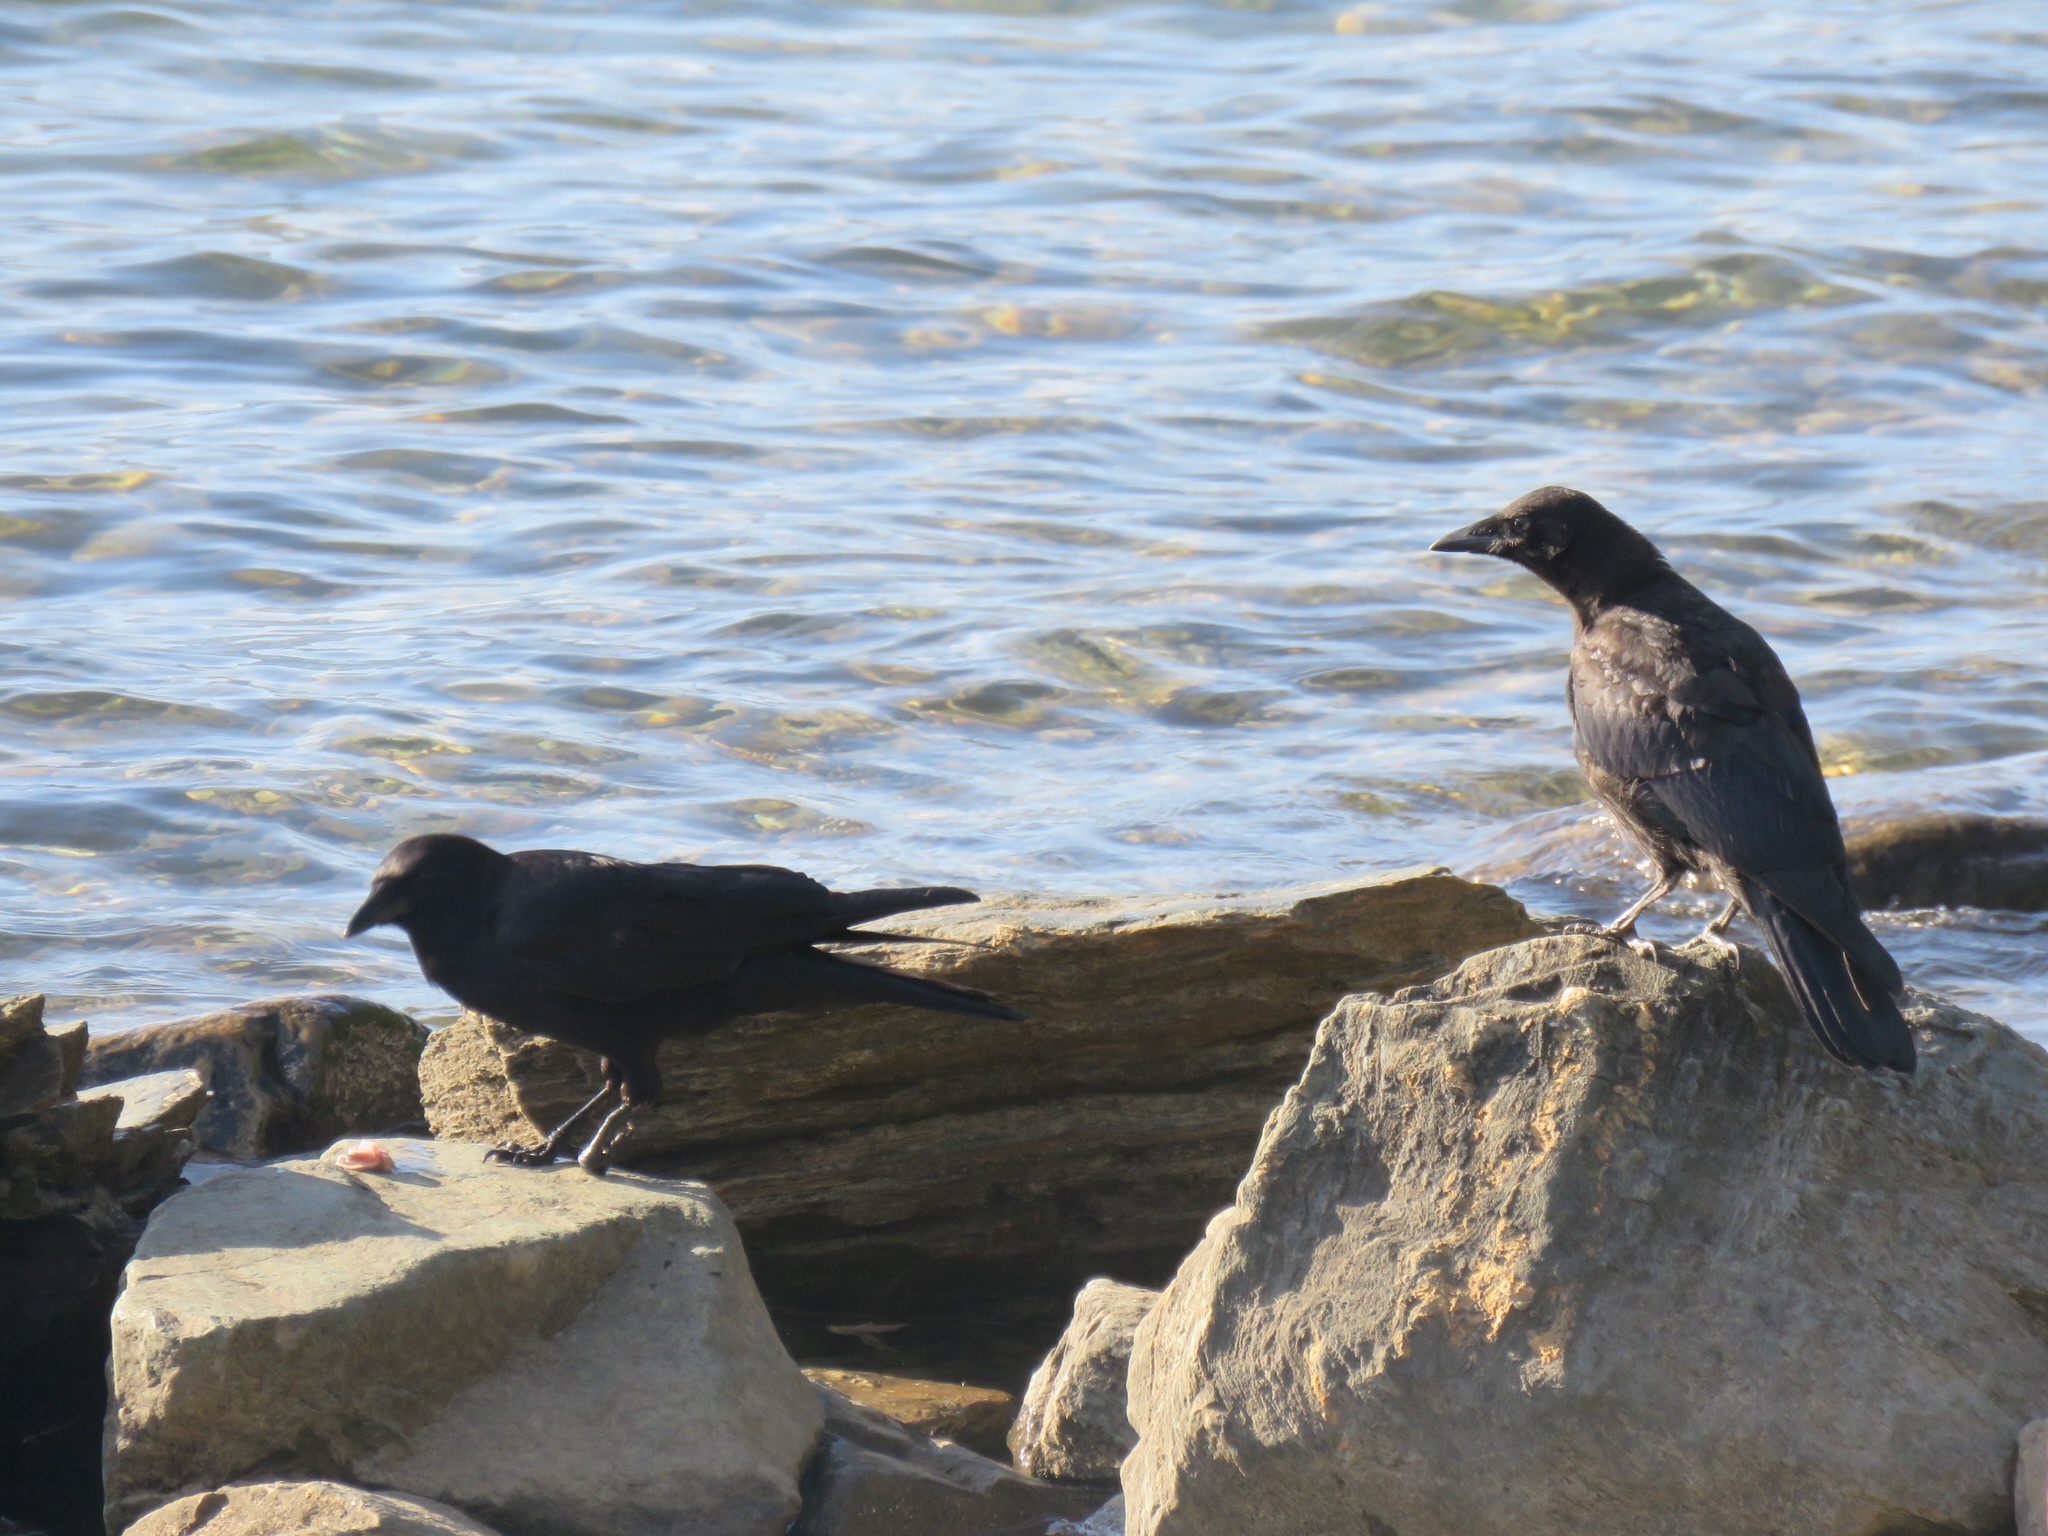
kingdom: Animalia
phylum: Chordata
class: Aves
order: Passeriformes
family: Corvidae
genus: Corvus
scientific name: Corvus brachyrhynchos
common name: American crow
